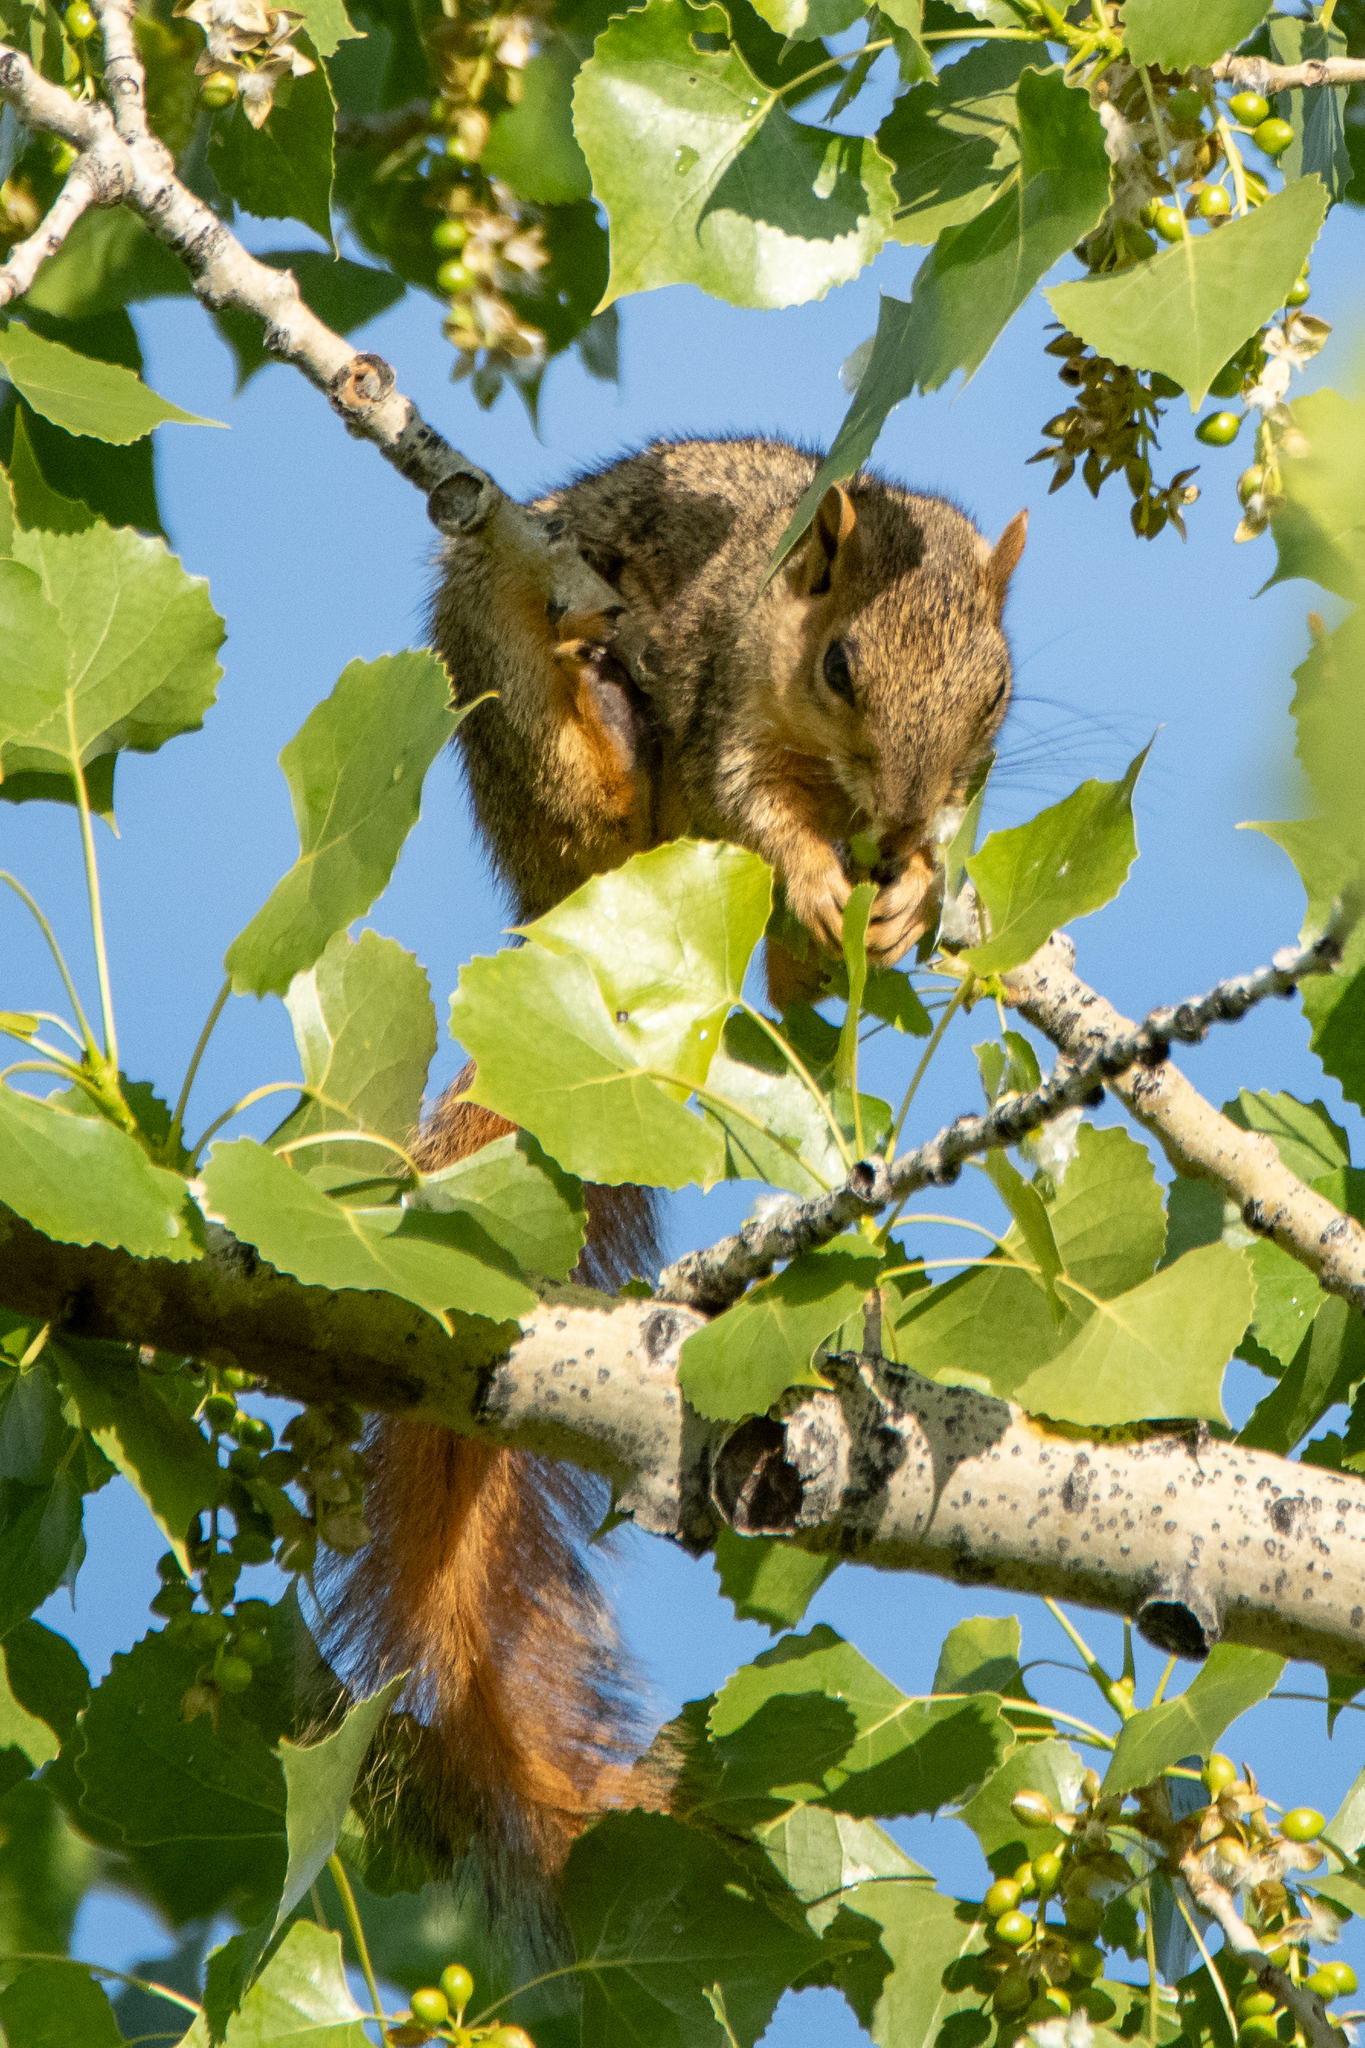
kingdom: Animalia
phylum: Chordata
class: Mammalia
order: Rodentia
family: Sciuridae
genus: Sciurus
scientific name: Sciurus niger
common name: Fox squirrel
